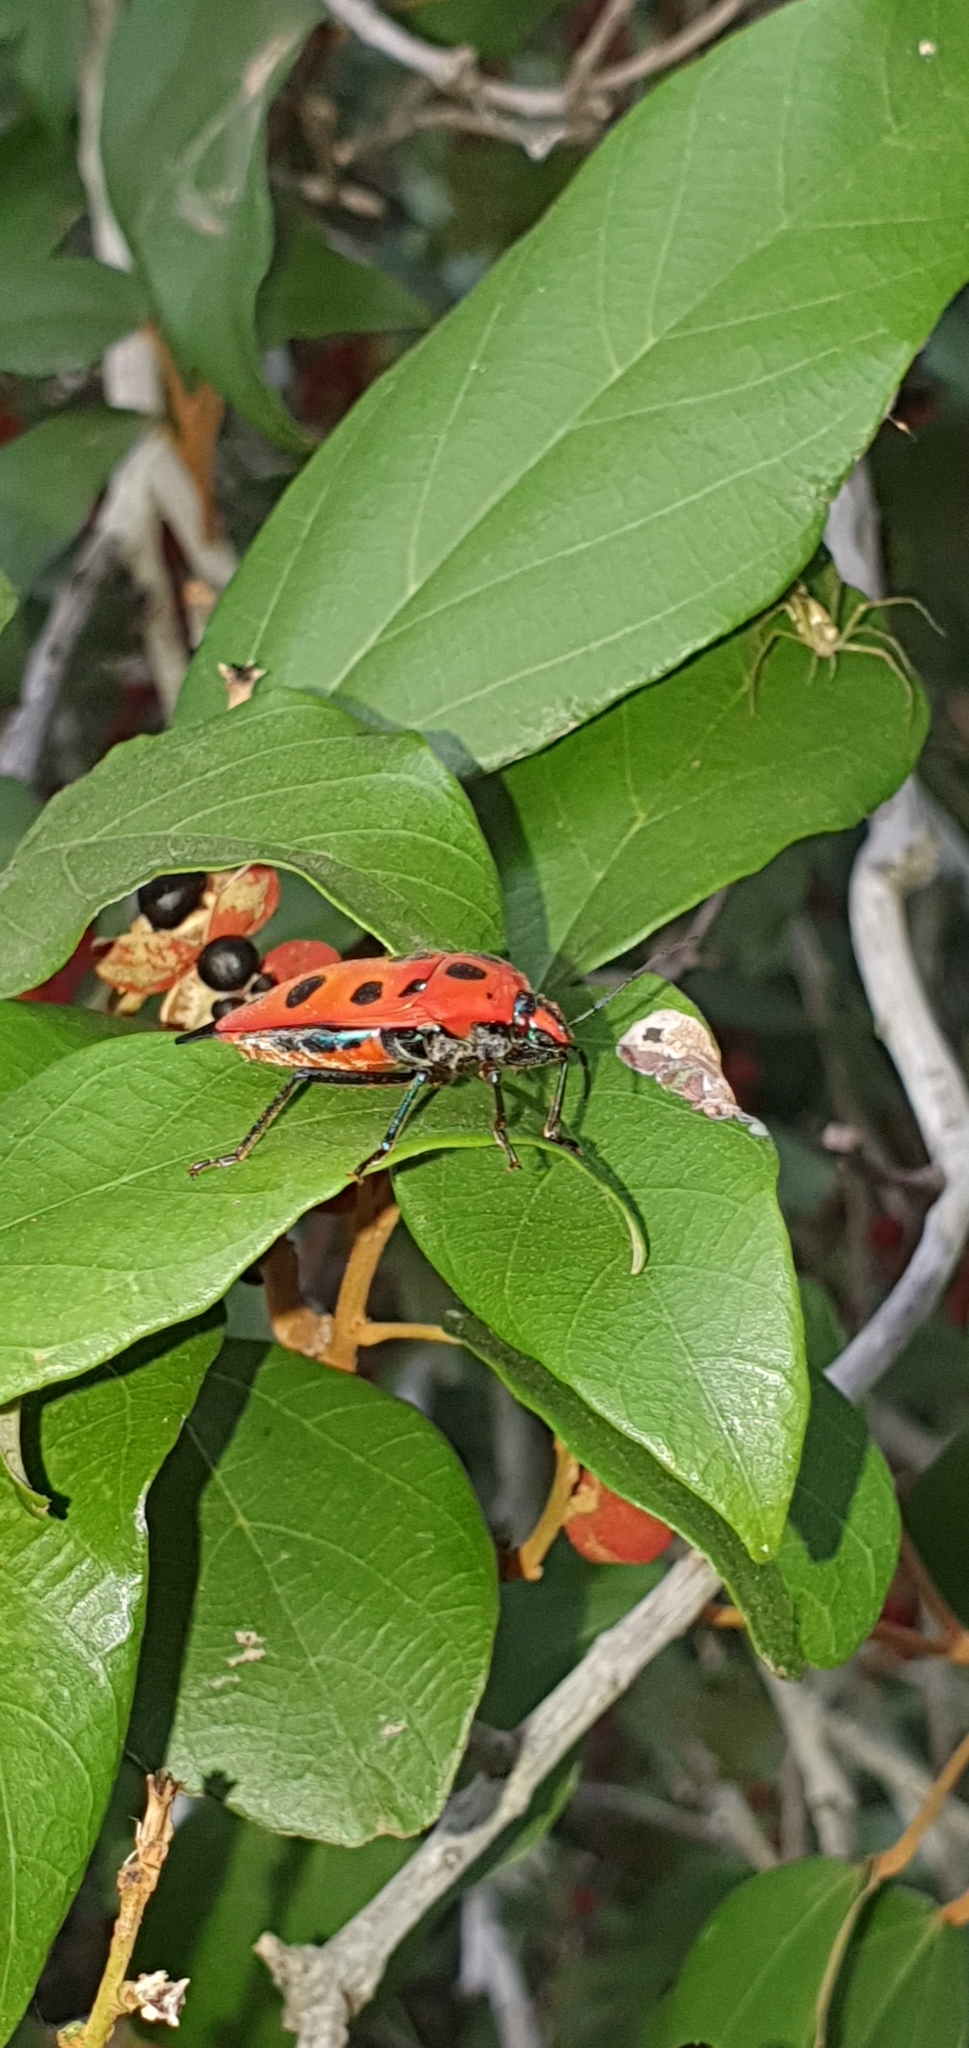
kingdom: Animalia
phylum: Arthropoda
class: Insecta
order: Hemiptera
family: Scutelleridae
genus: Cantao
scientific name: Cantao
